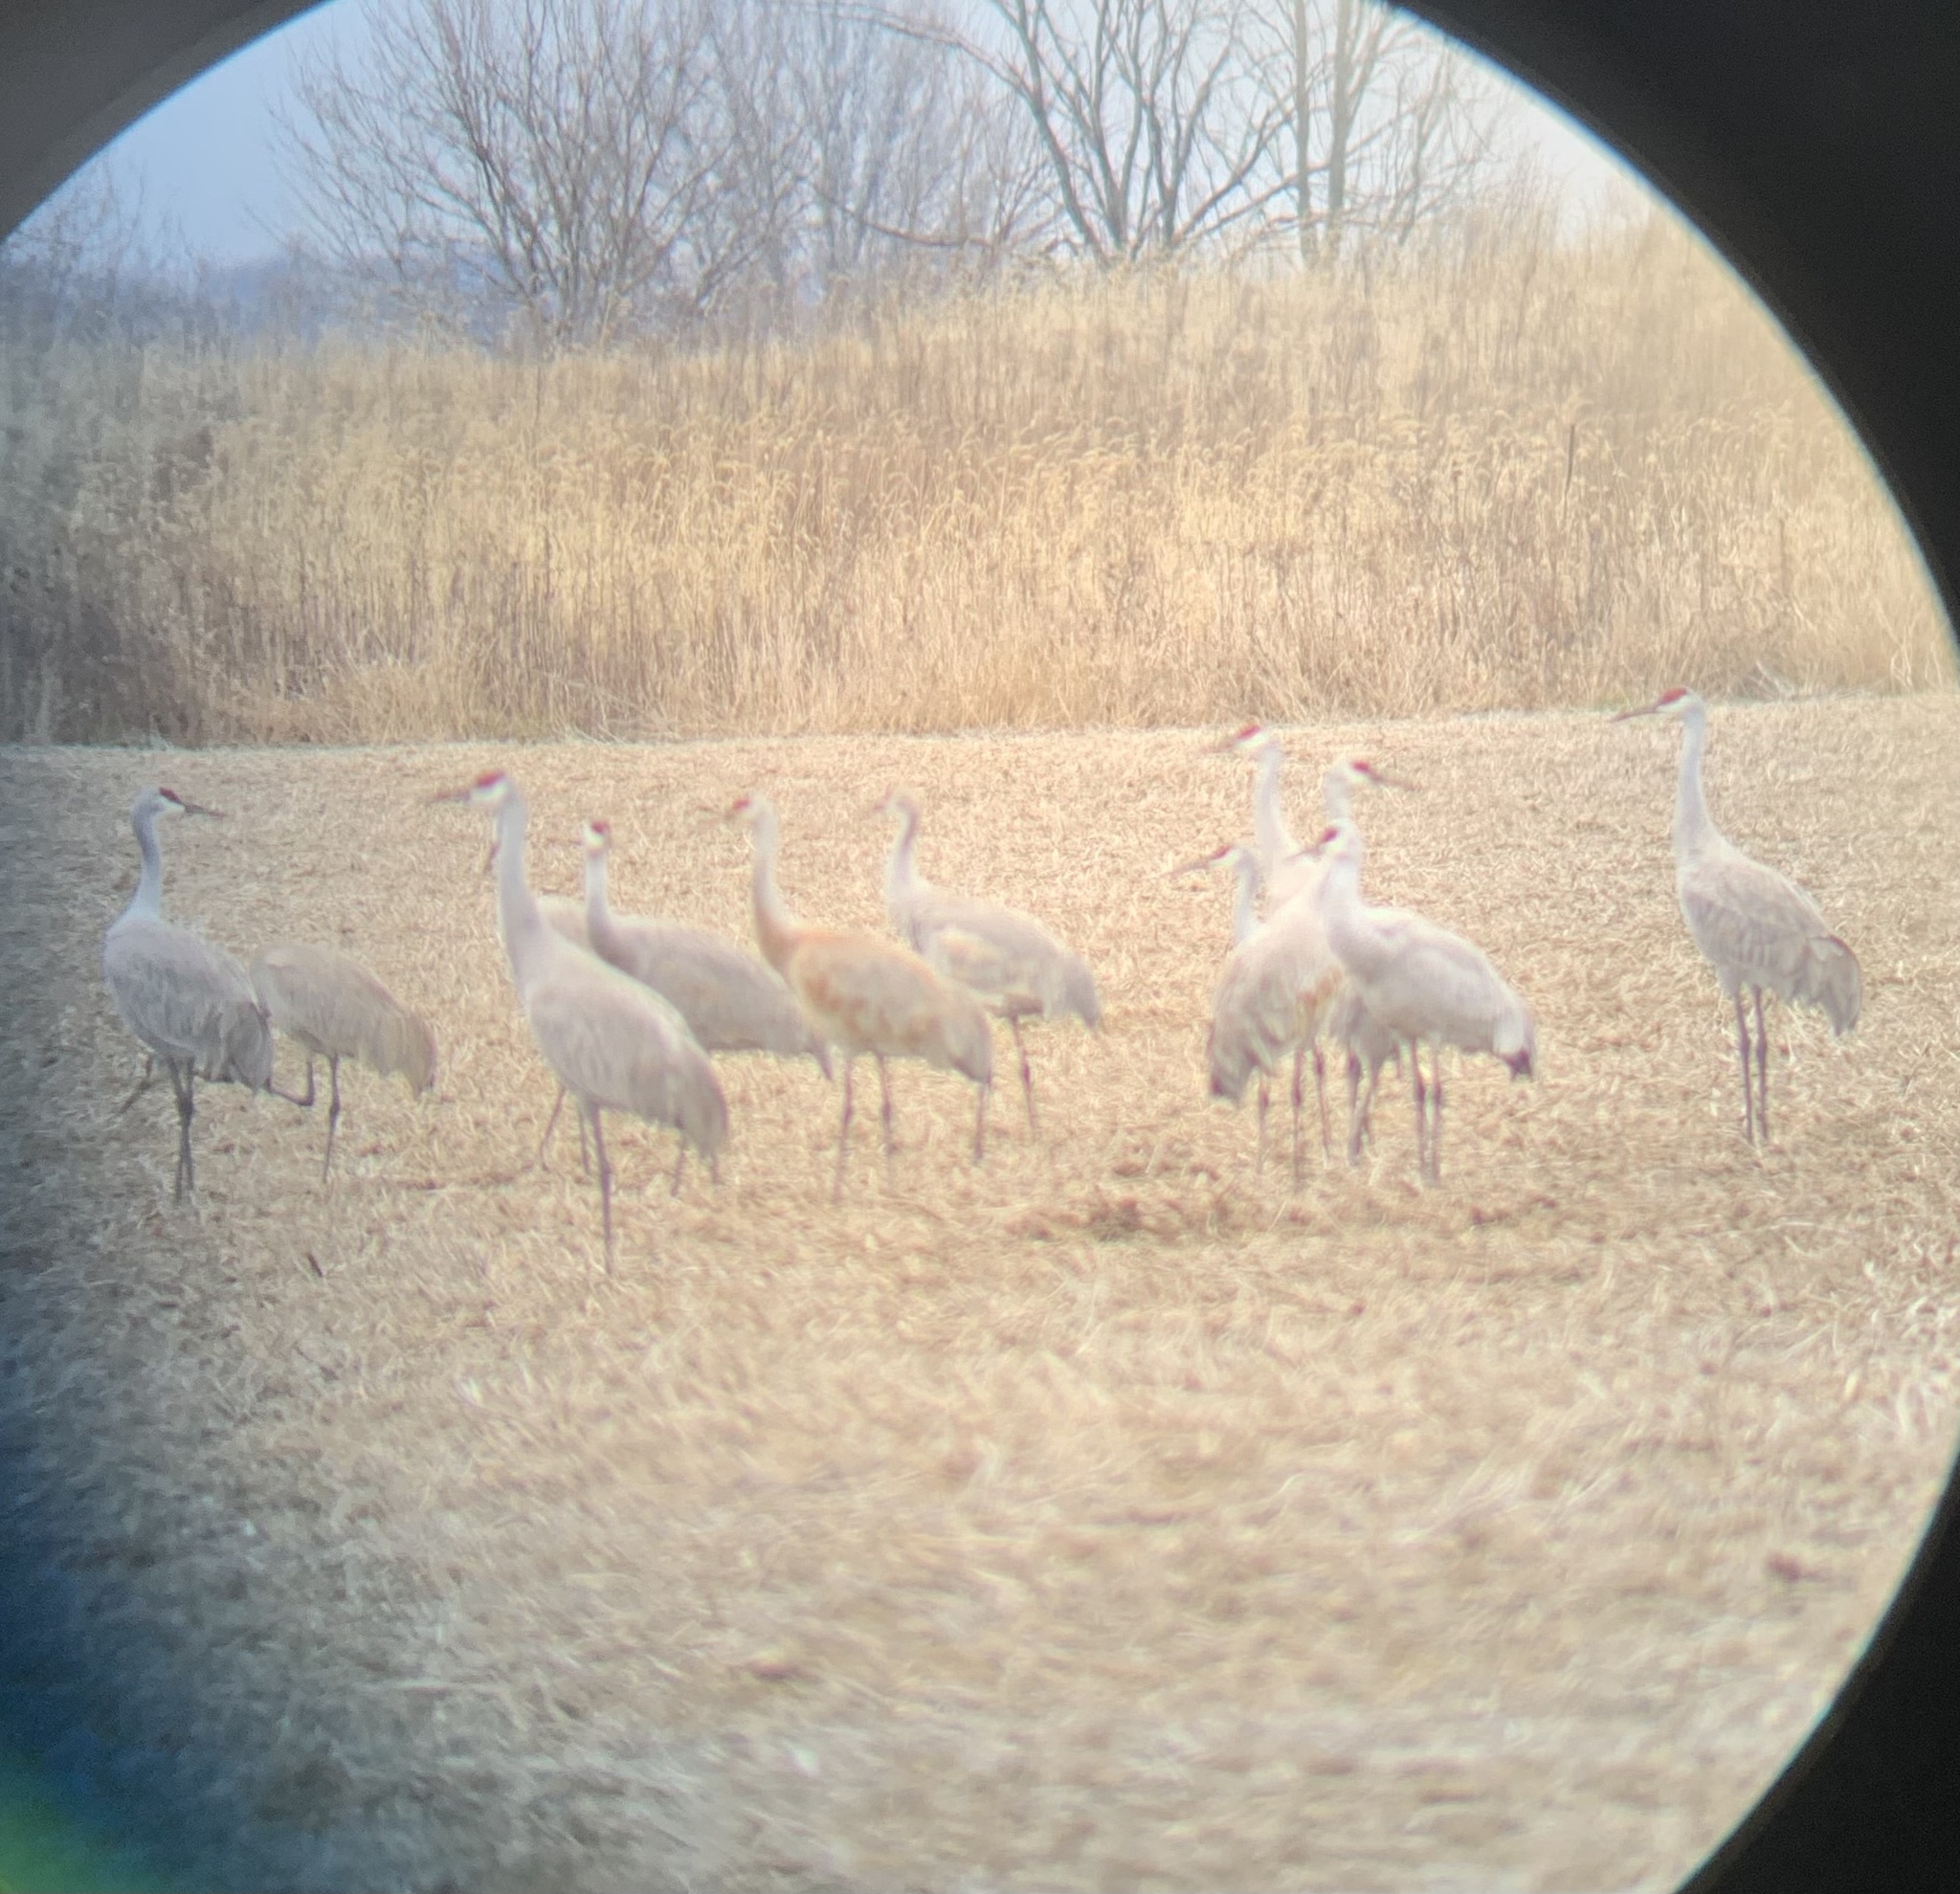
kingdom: Animalia
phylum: Chordata
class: Aves
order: Gruiformes
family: Gruidae
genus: Grus
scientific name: Grus canadensis
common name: Sandhill crane
